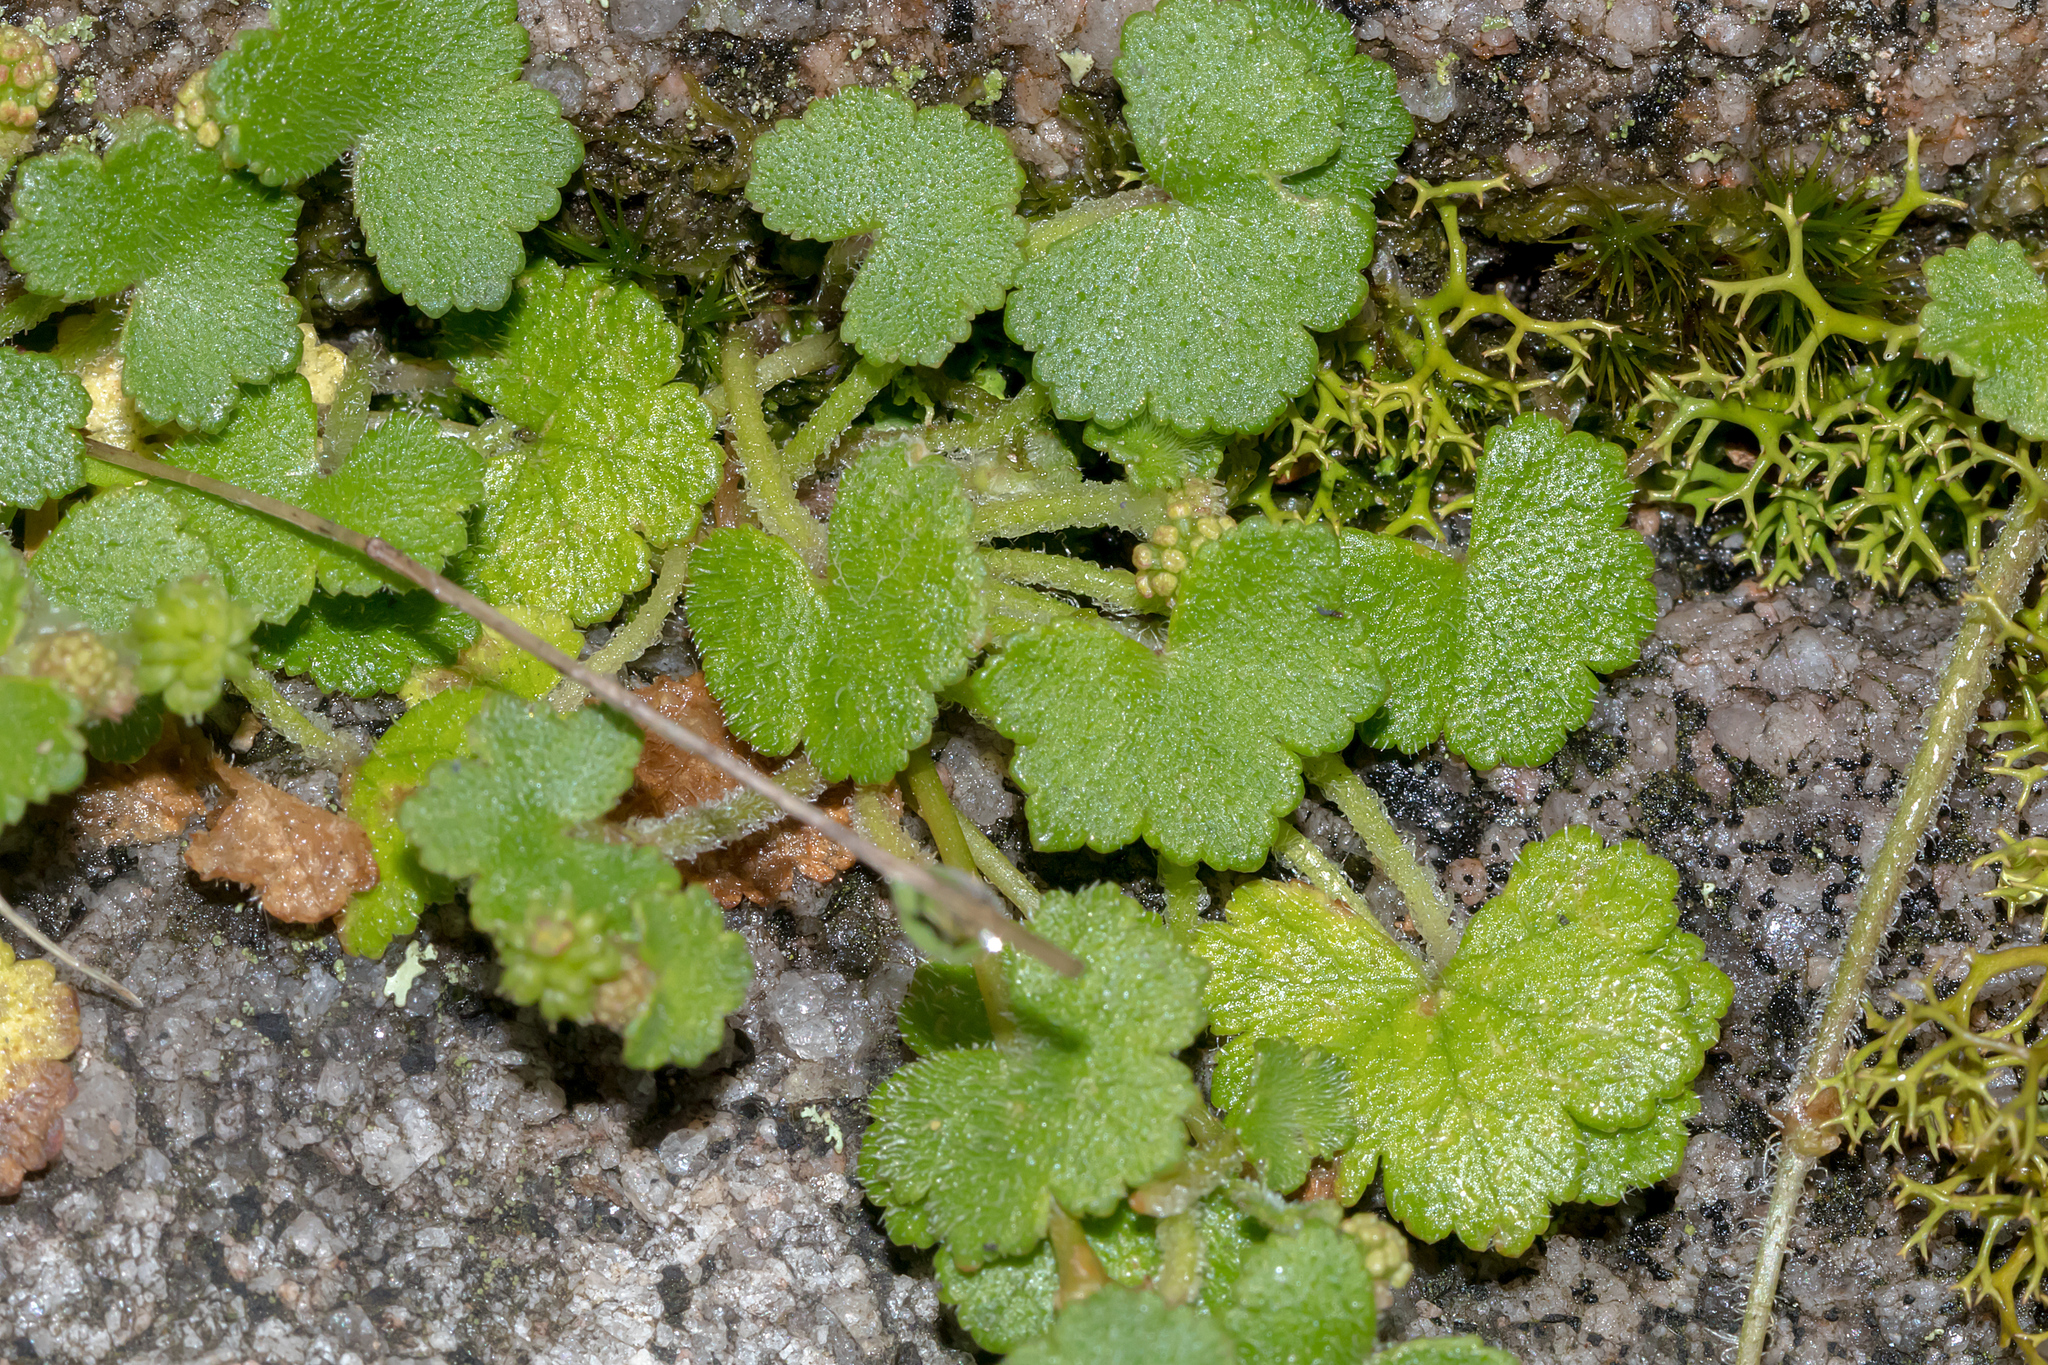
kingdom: Plantae
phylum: Tracheophyta
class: Magnoliopsida
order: Apiales
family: Araliaceae
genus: Hydrocotyle
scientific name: Hydrocotyle hirta
